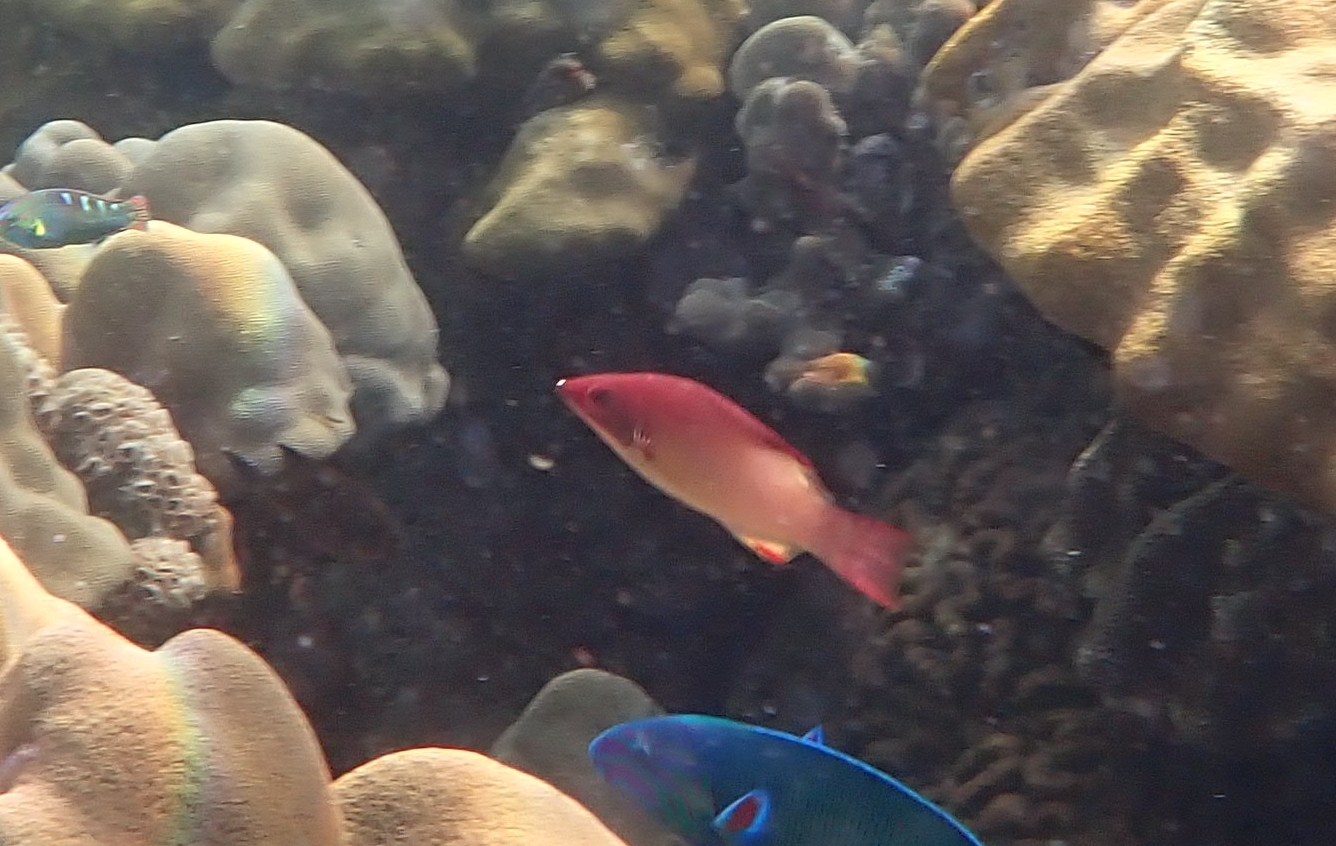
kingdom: Animalia
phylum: Chordata
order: Perciformes
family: Labridae
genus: Bodianus
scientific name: Bodianus neilli
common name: Bay of bengal hogfish
